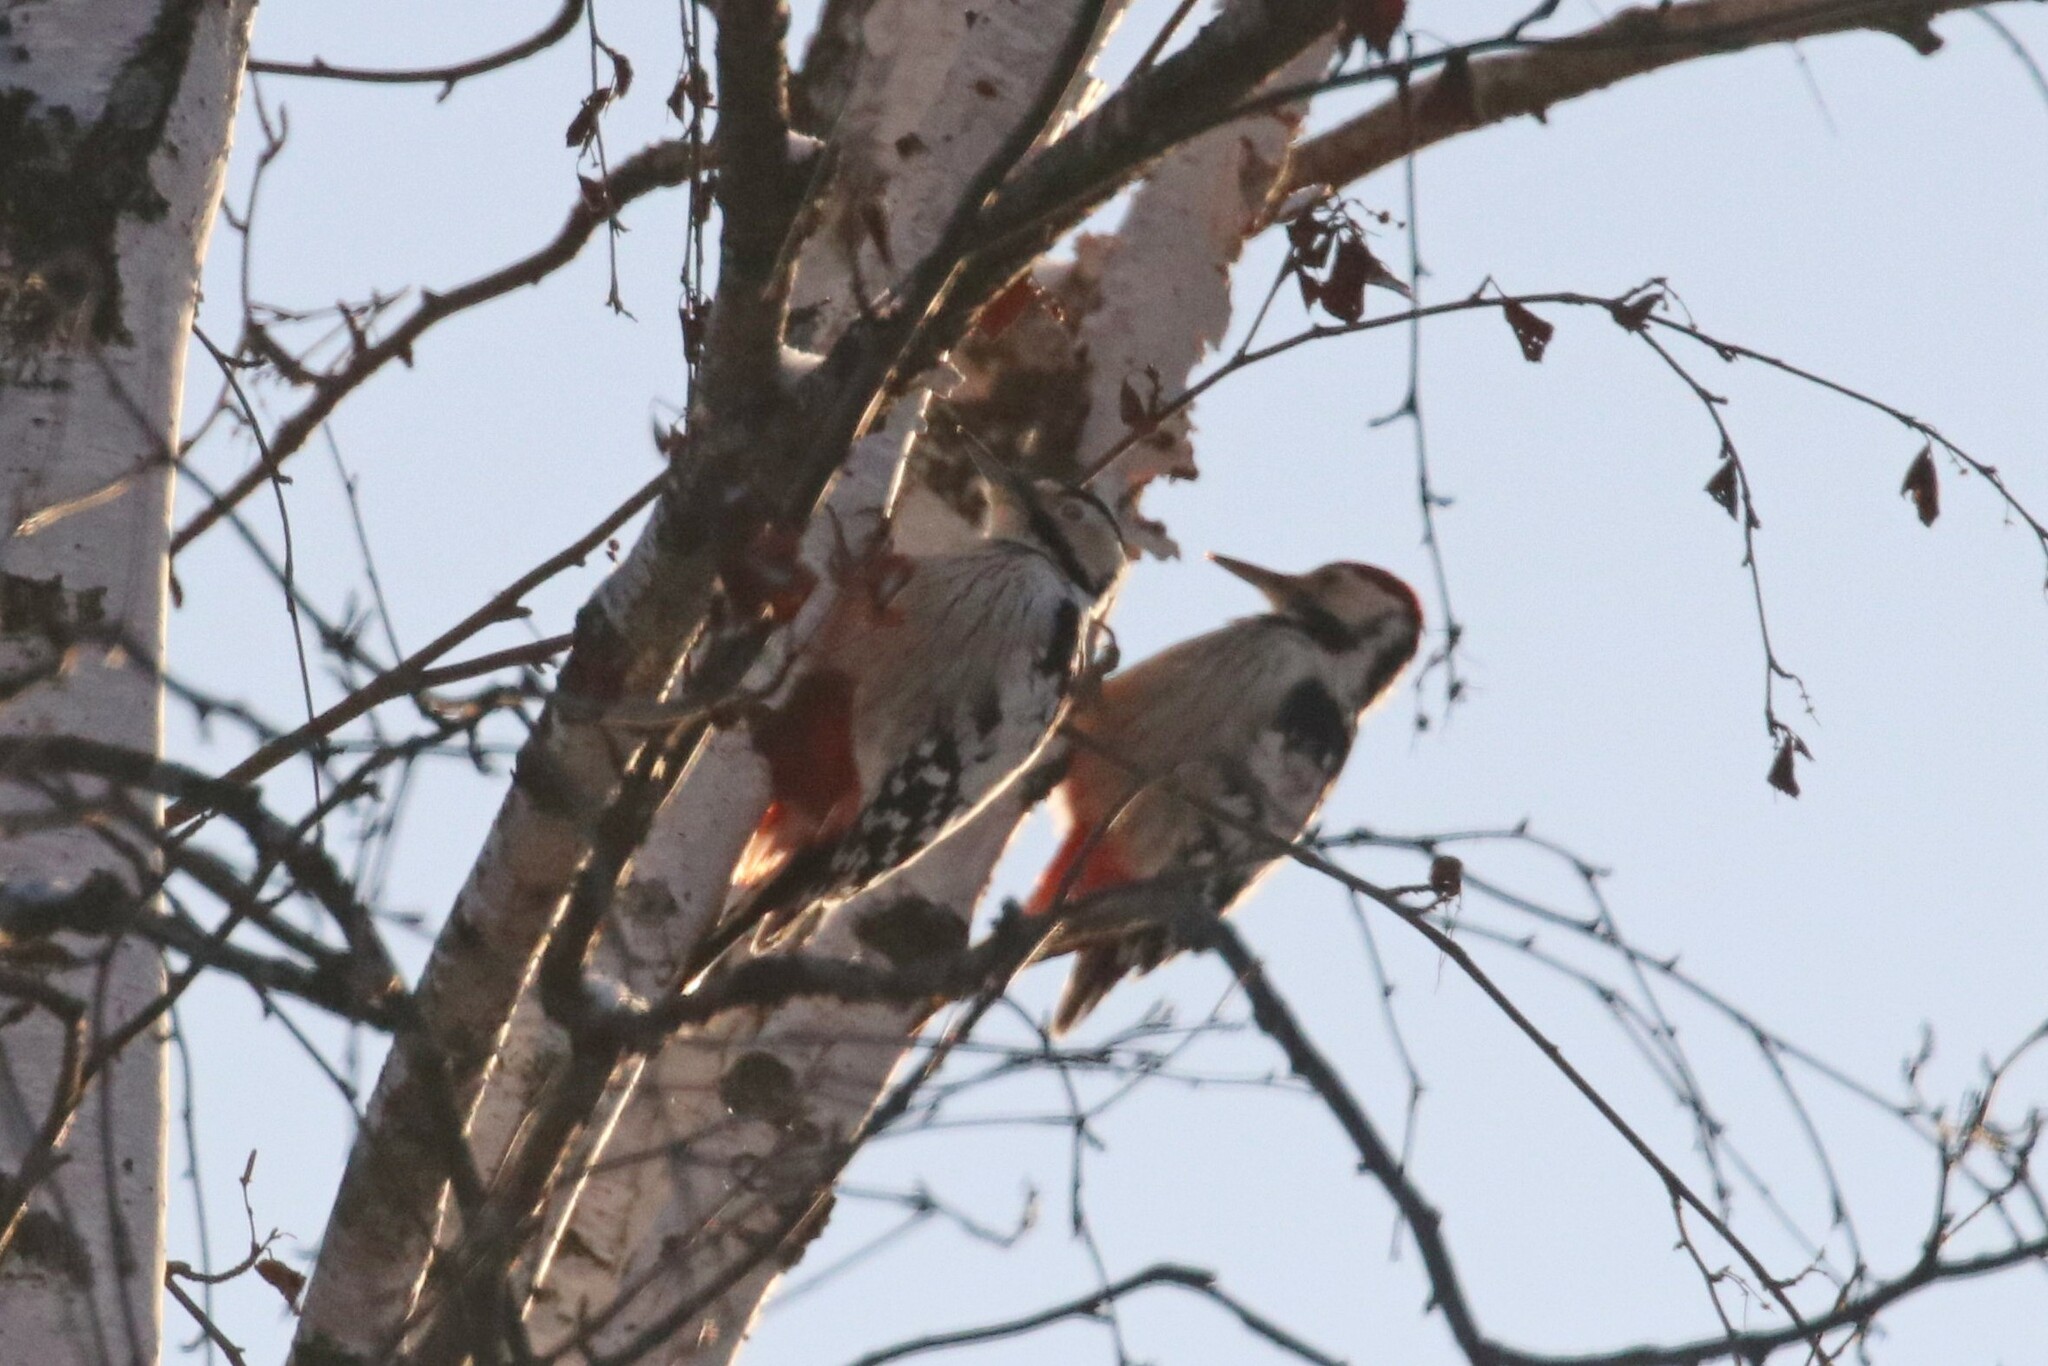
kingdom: Animalia
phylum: Chordata
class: Aves
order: Piciformes
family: Picidae
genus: Dendrocopos
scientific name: Dendrocopos leucotos
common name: White-backed woodpecker
